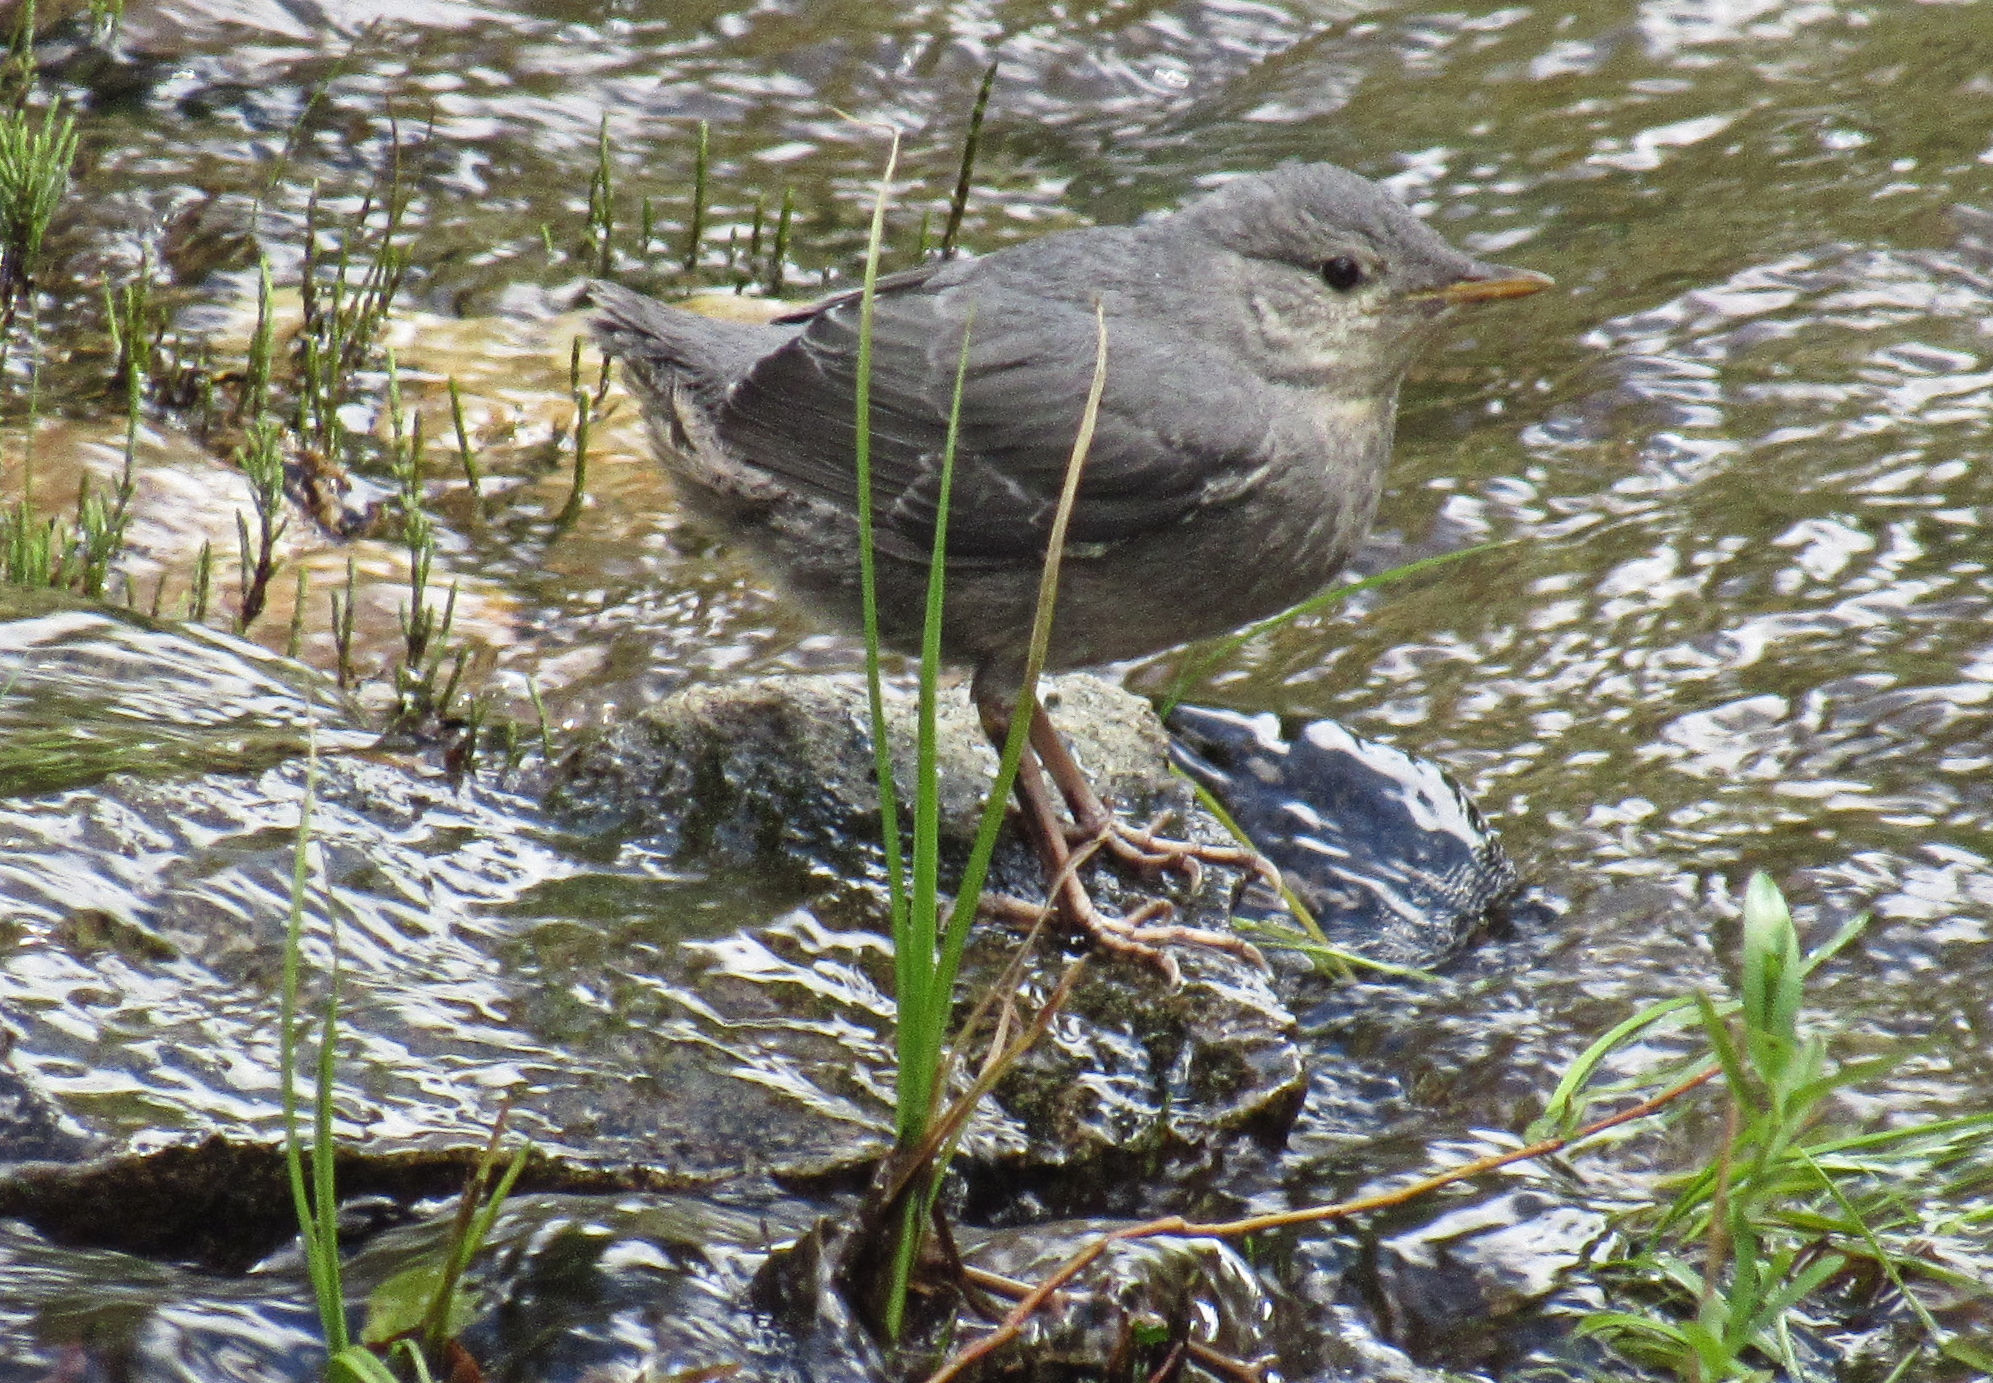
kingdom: Animalia
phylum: Chordata
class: Aves
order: Passeriformes
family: Cinclidae
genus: Cinclus
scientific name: Cinclus mexicanus
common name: American dipper
